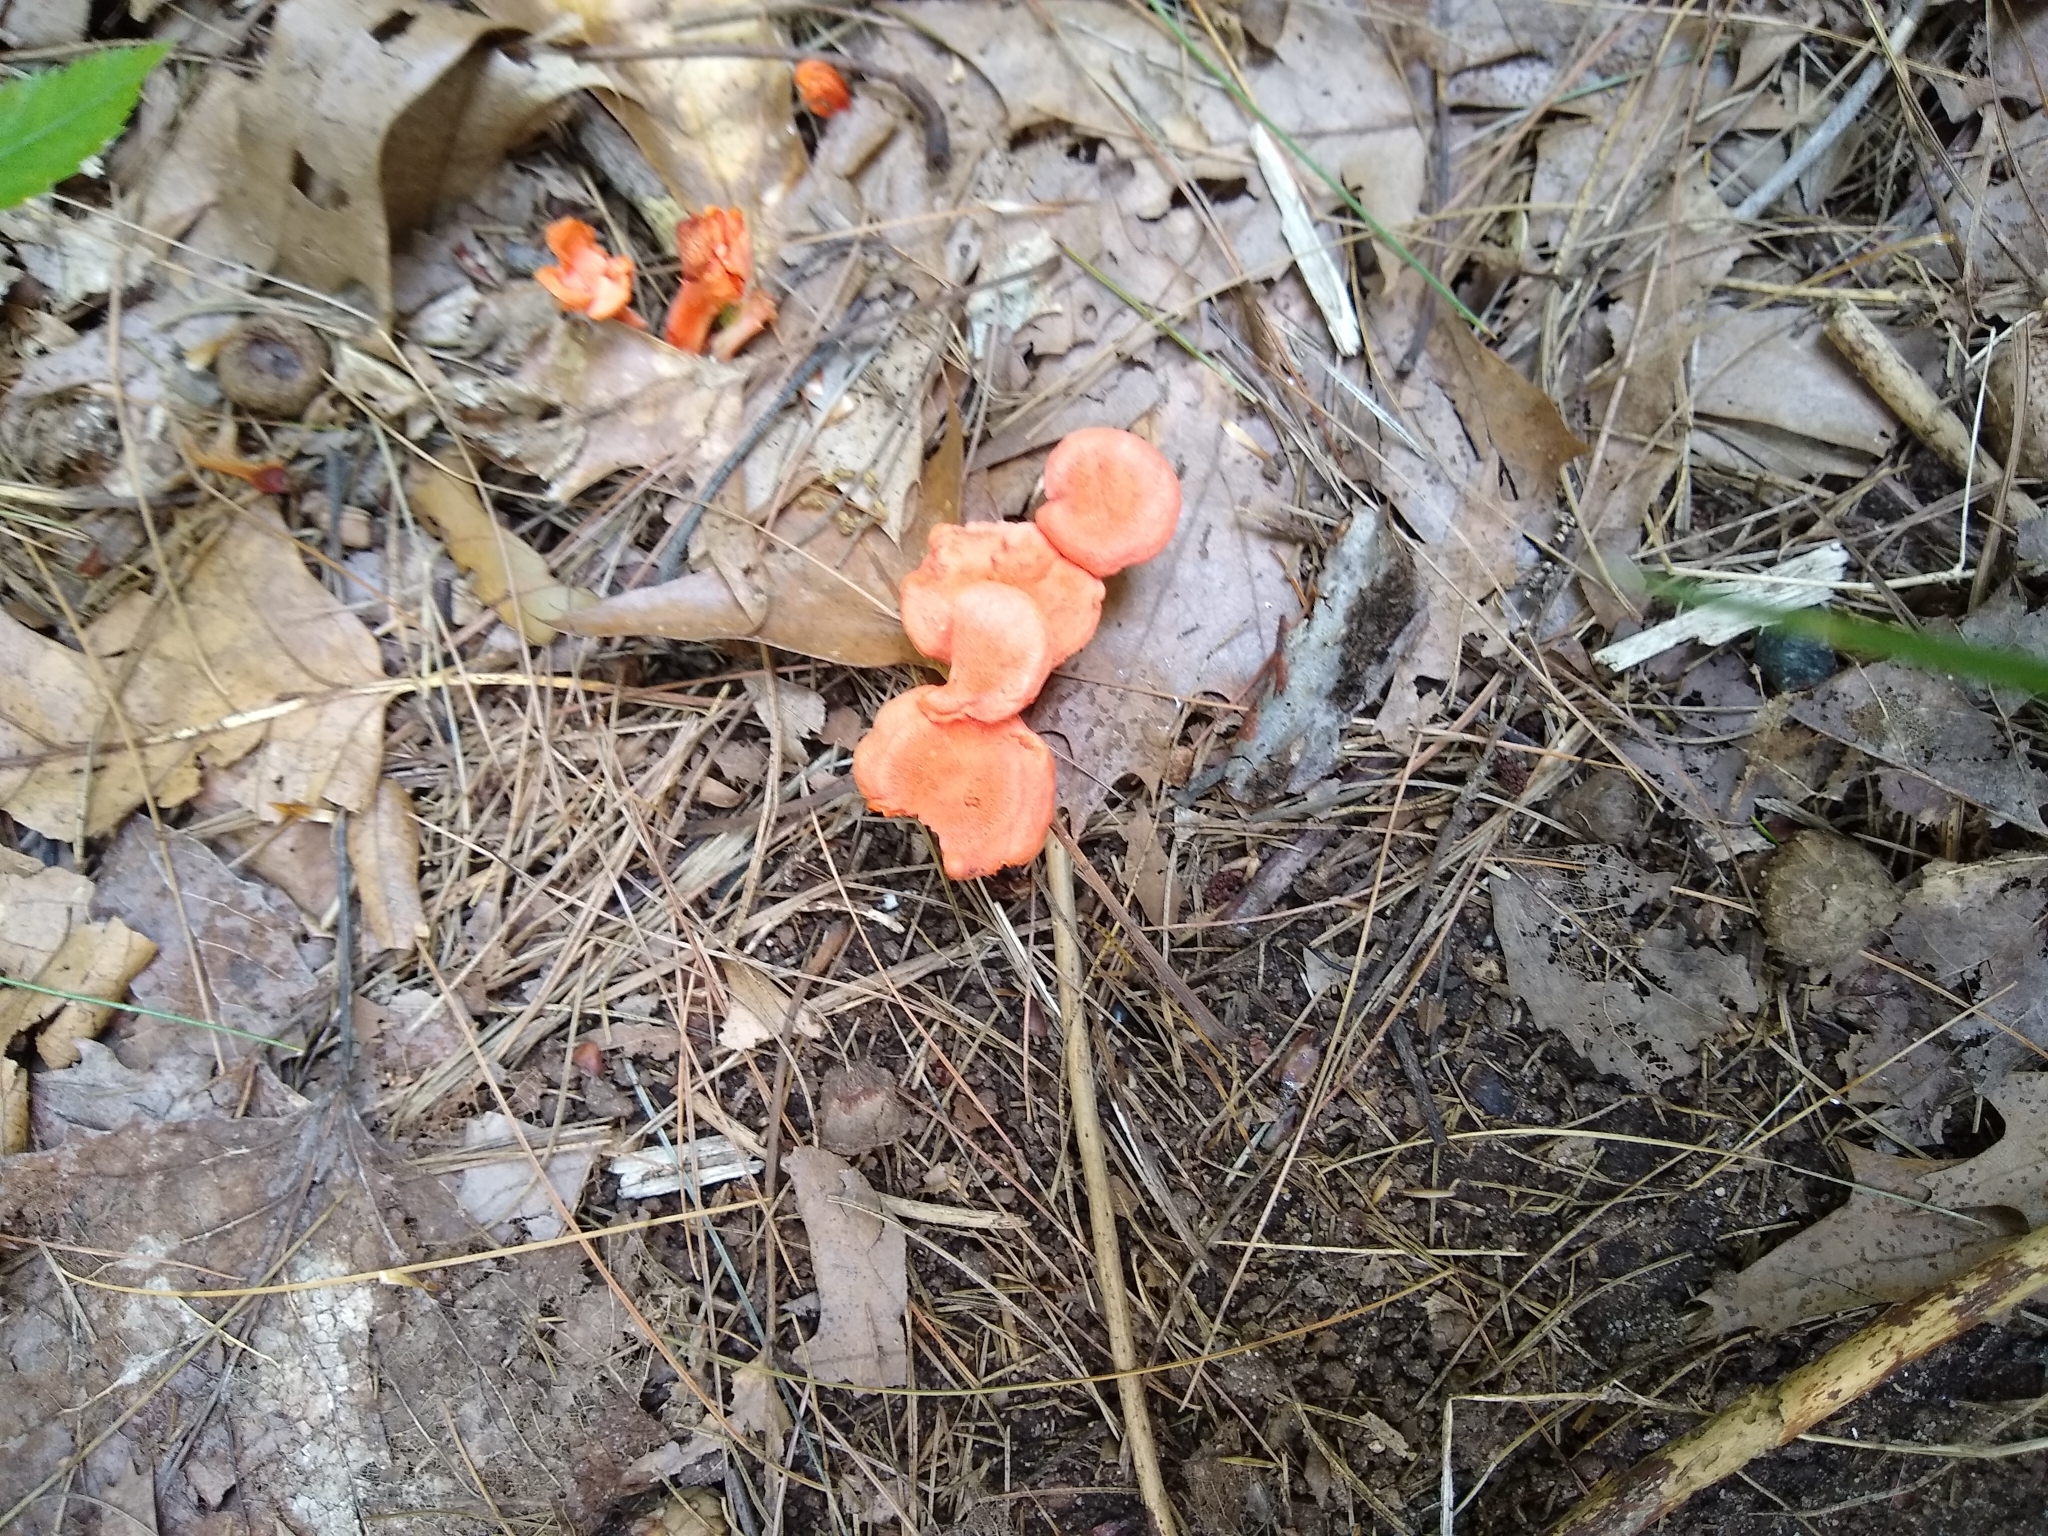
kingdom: Fungi
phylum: Basidiomycota
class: Agaricomycetes
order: Cantharellales
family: Hydnaceae
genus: Cantharellus
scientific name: Cantharellus cinnabarinus
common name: Cinnabar chanterelle
